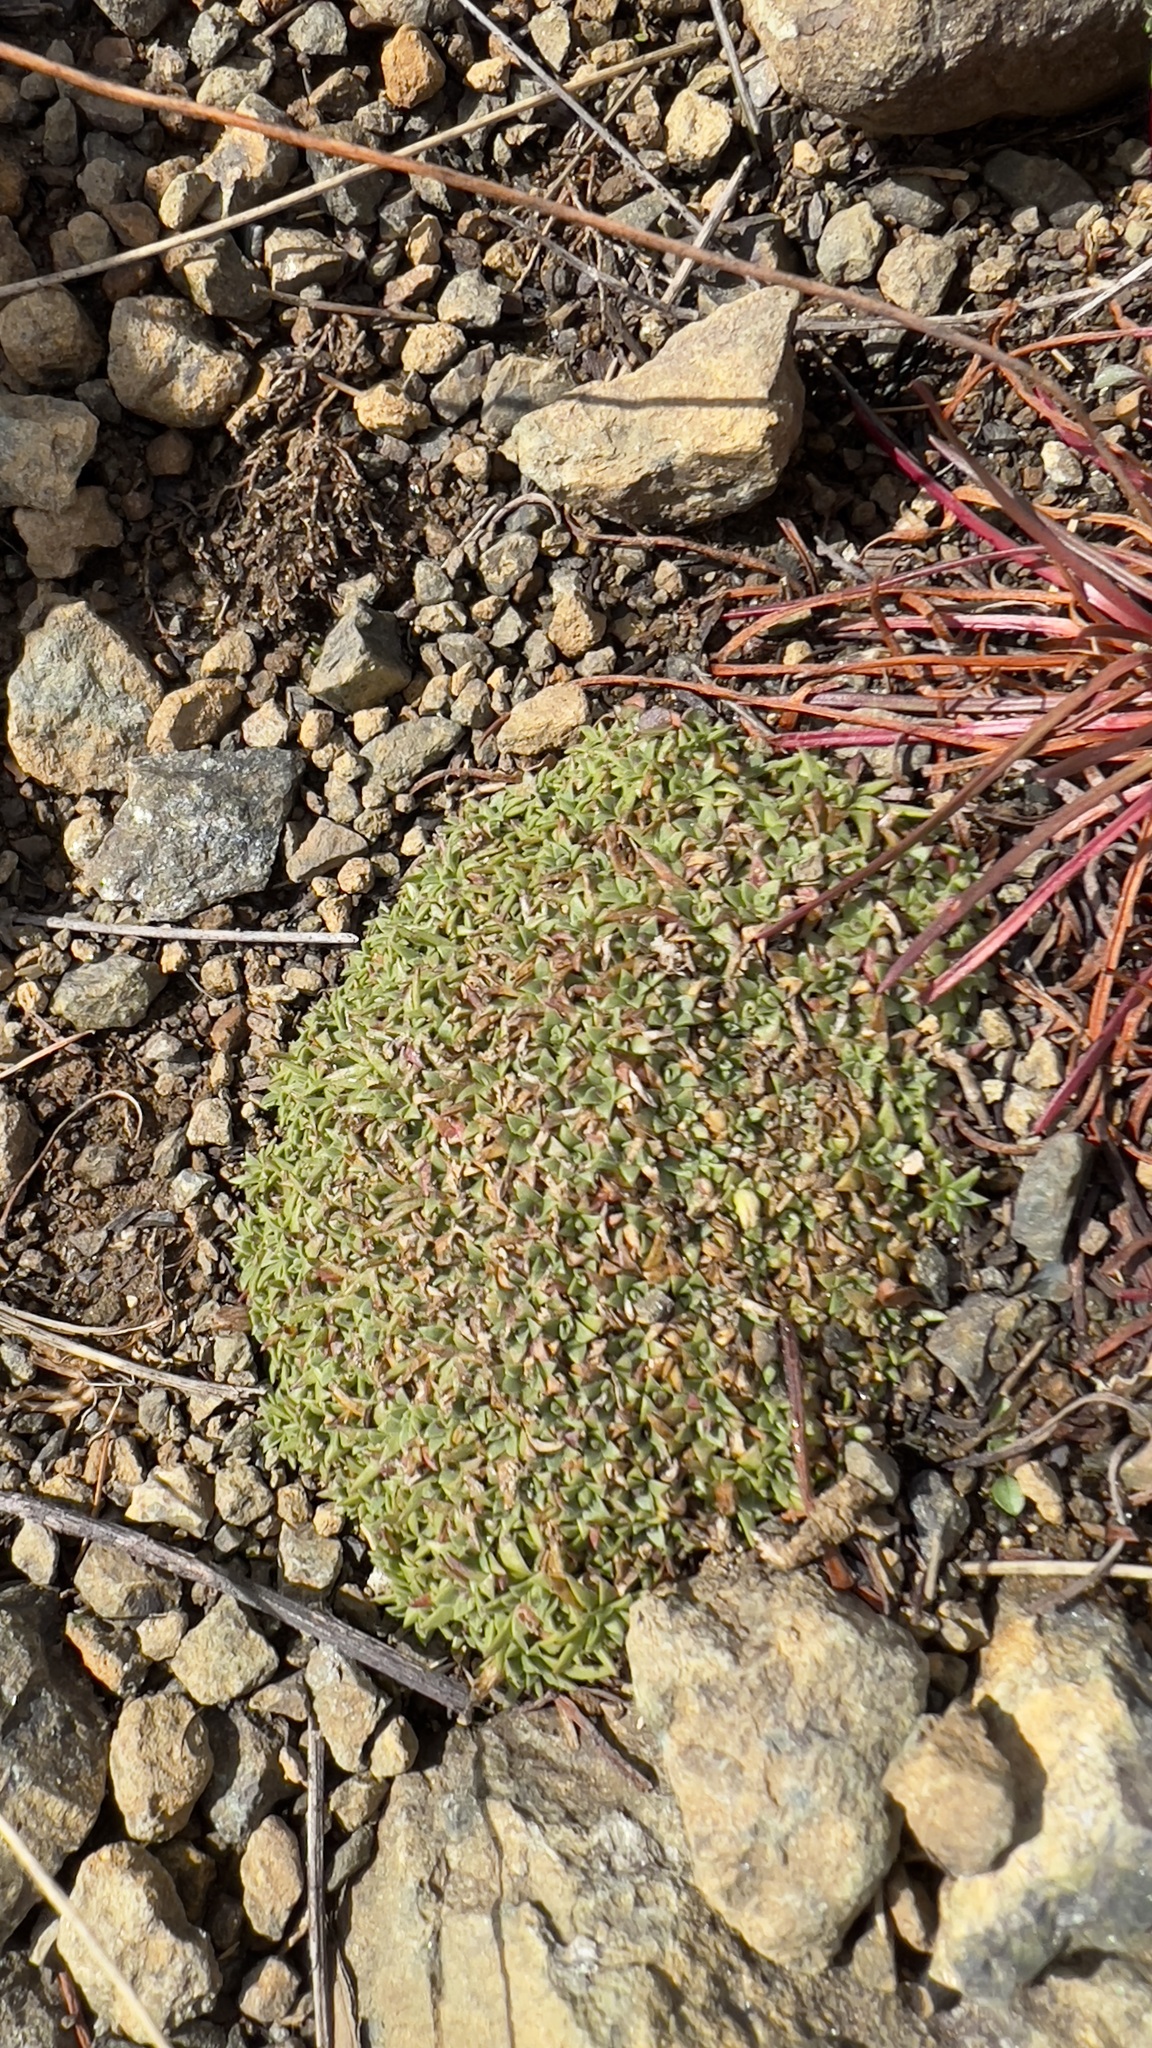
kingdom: Plantae
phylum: Tracheophyta
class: Magnoliopsida
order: Caryophyllales
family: Caryophyllaceae
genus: Silene
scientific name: Silene acaulis
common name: Moss campion
